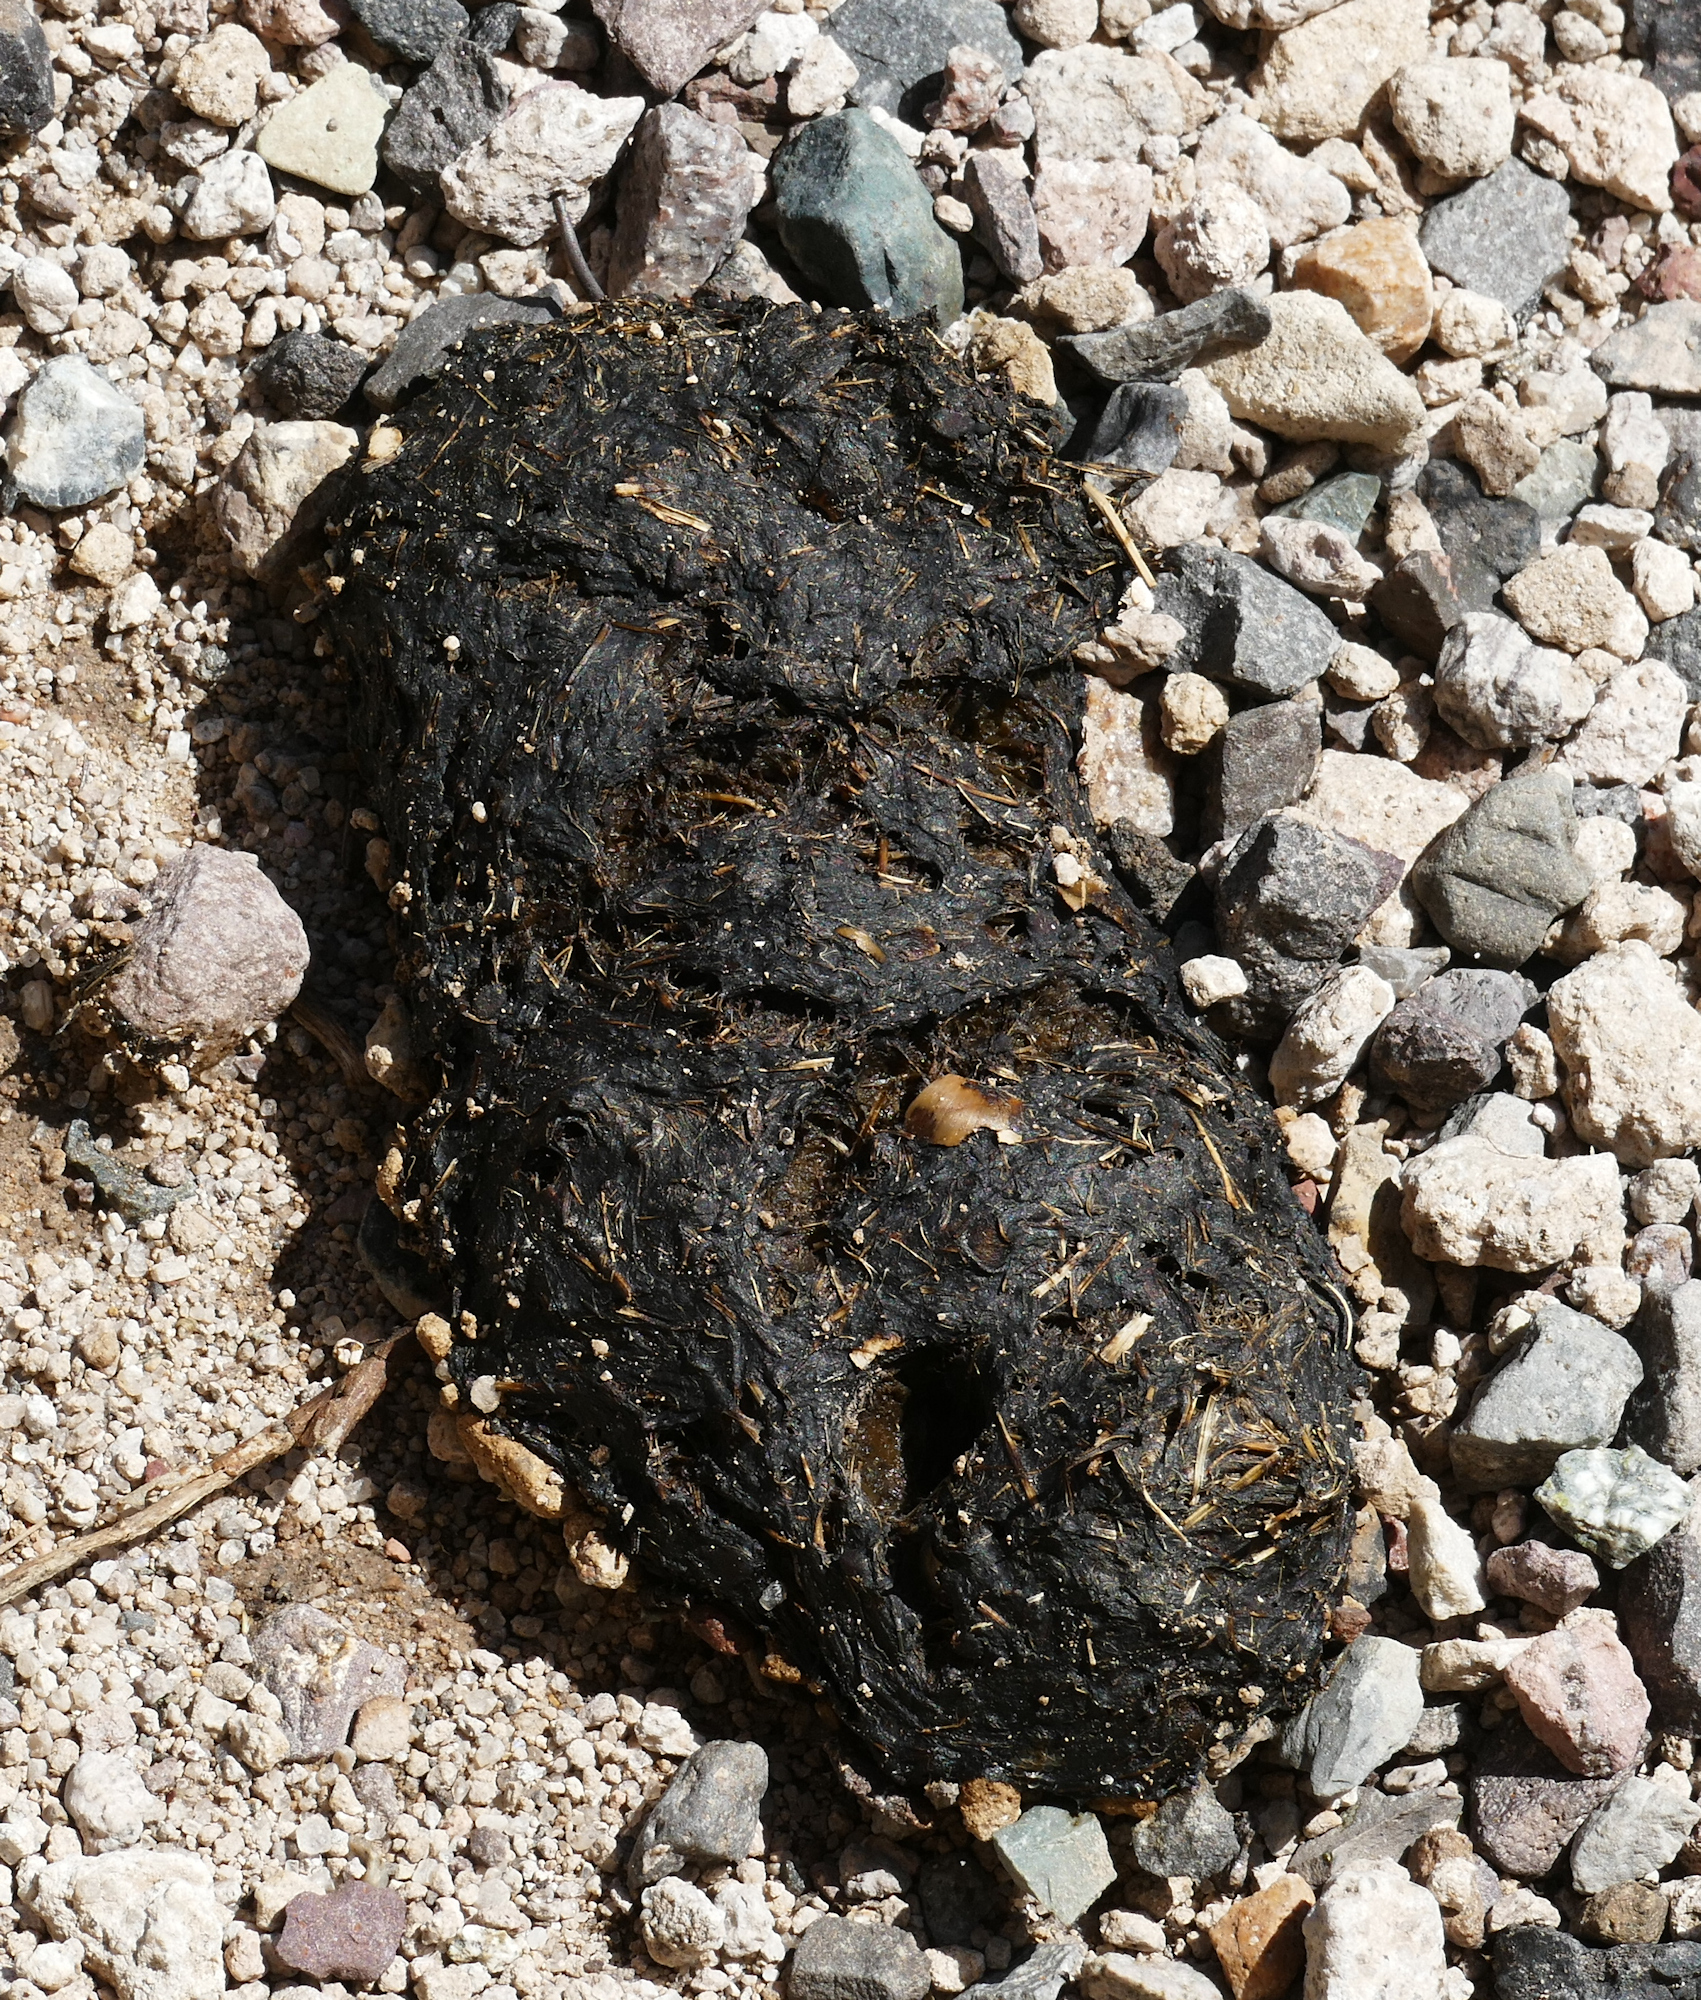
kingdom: Animalia
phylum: Chordata
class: Mammalia
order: Carnivora
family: Ursidae
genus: Ursus
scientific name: Ursus americanus
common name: American black bear
